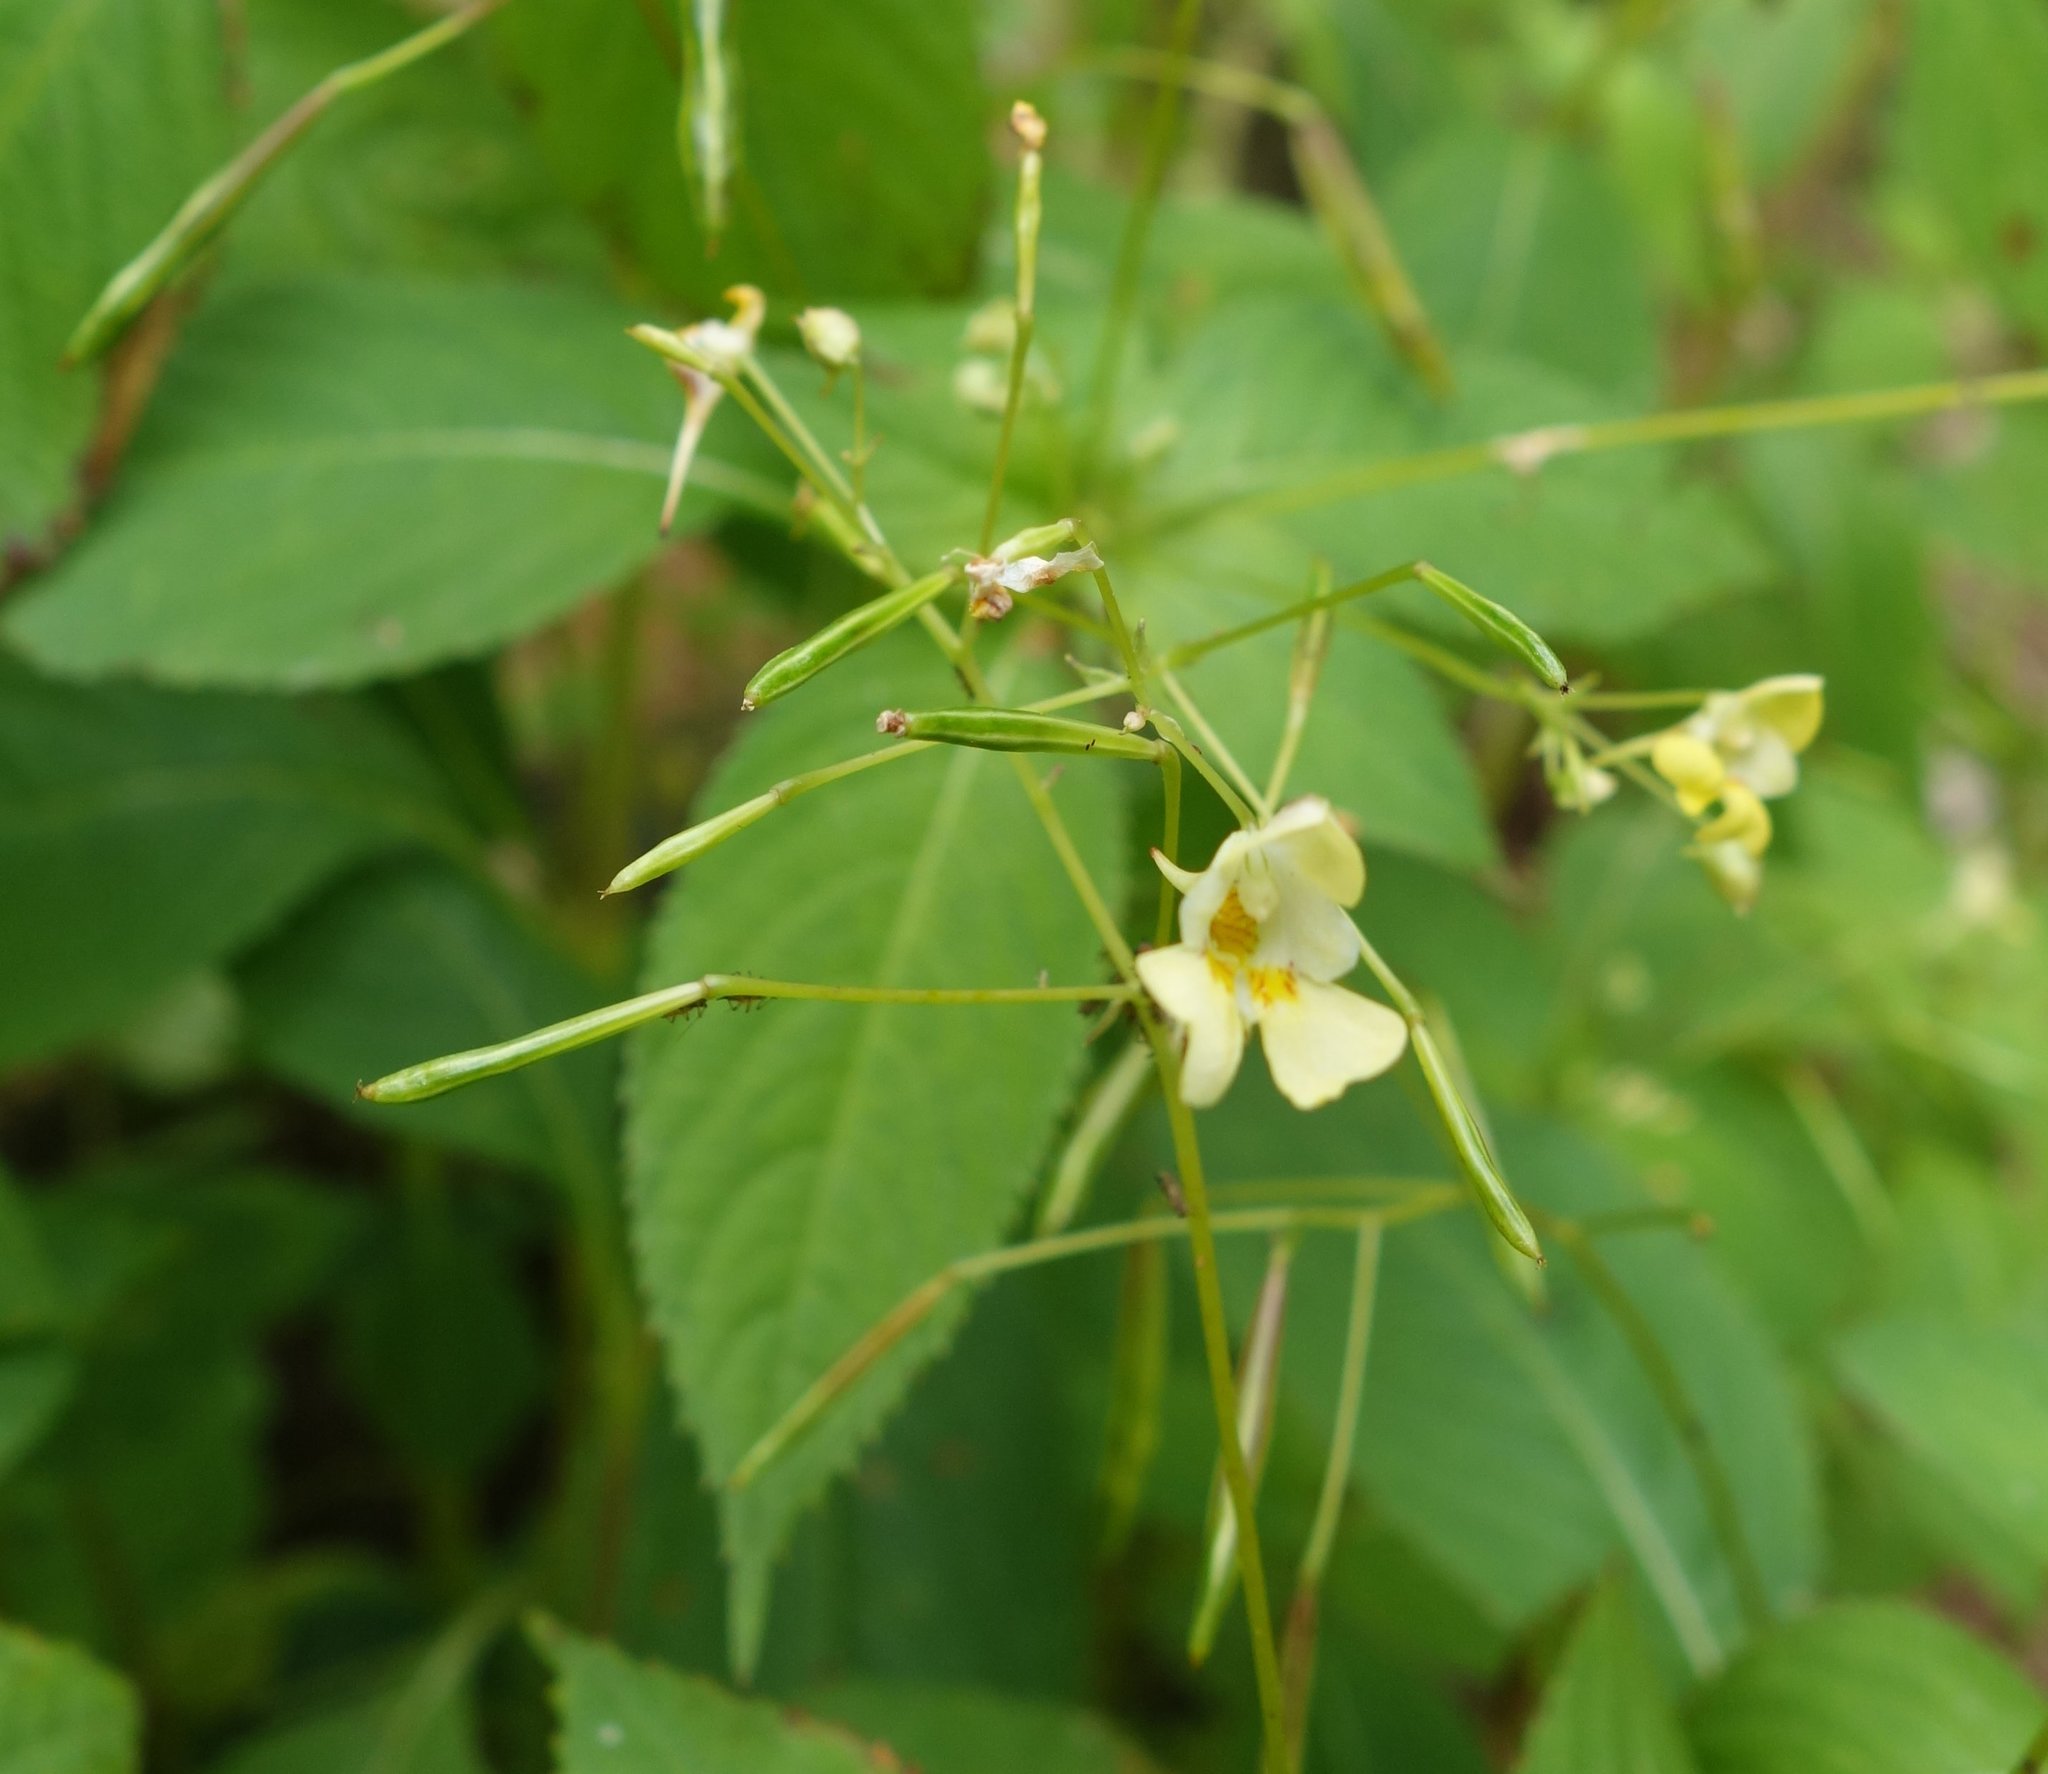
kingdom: Plantae
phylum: Tracheophyta
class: Magnoliopsida
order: Ericales
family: Balsaminaceae
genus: Impatiens
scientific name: Impatiens parviflora
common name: Small balsam
